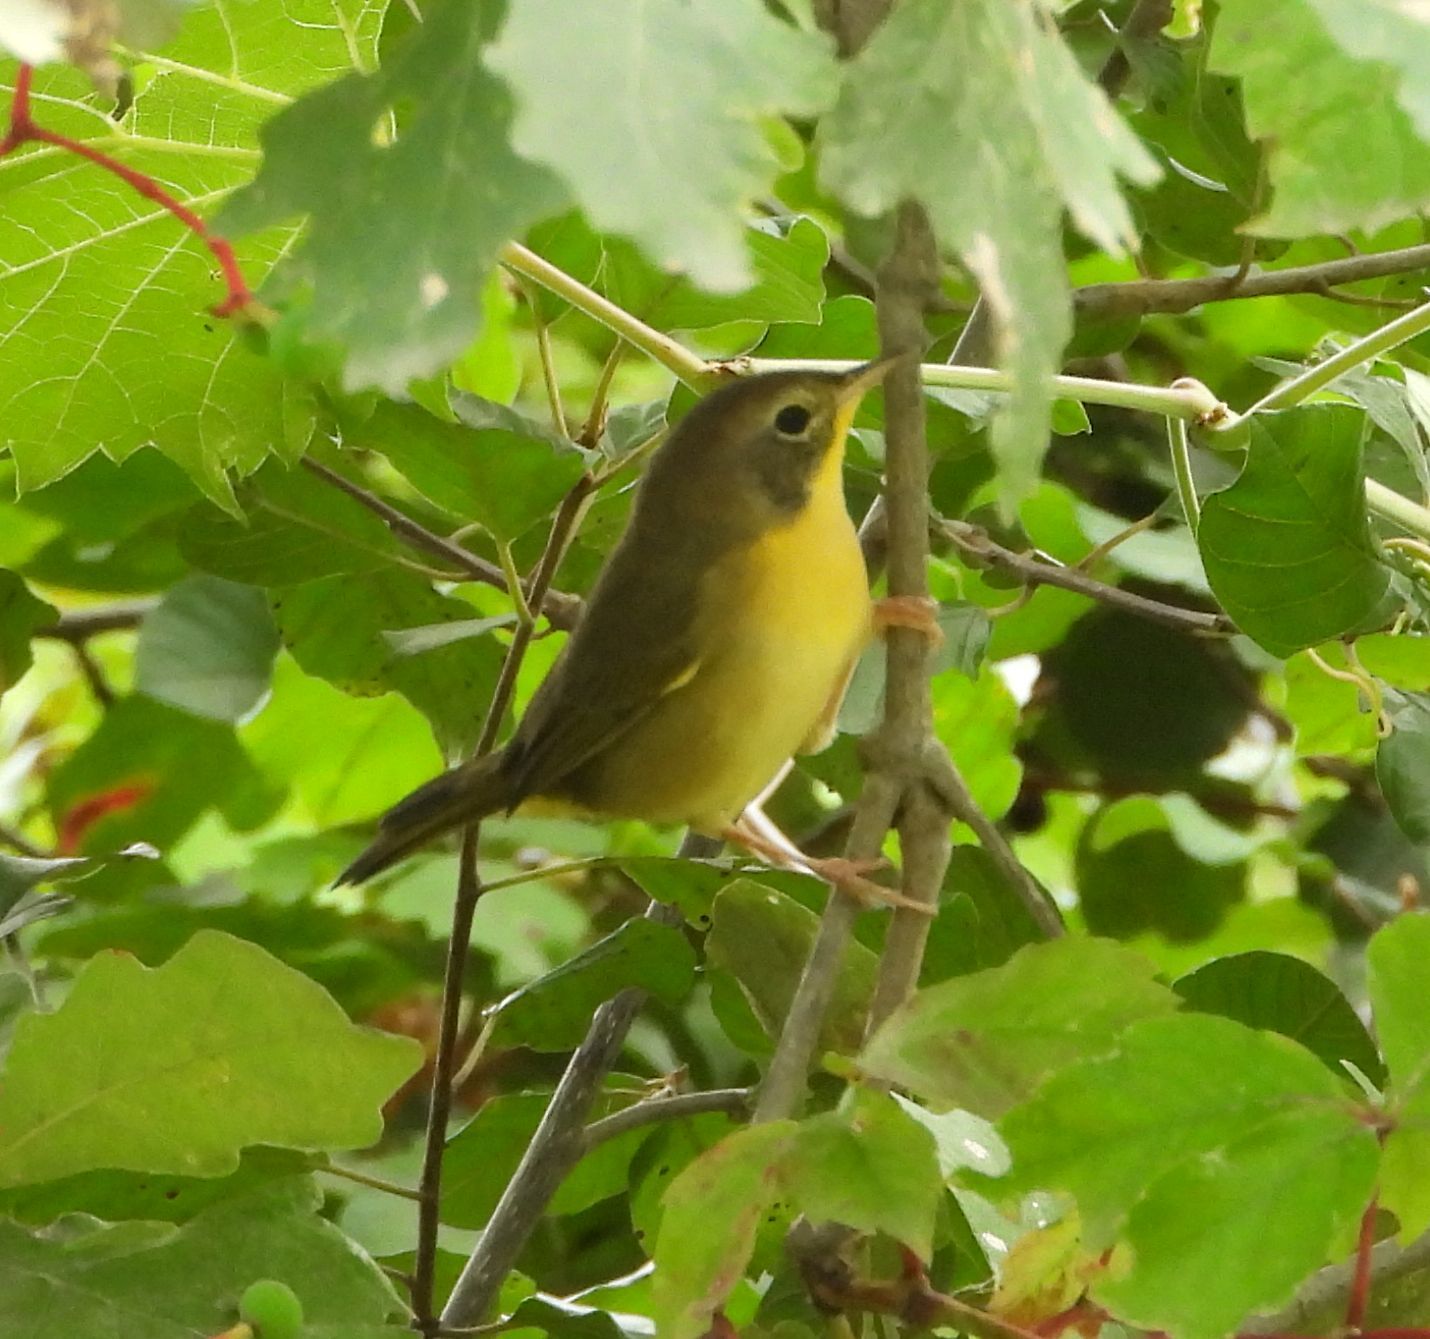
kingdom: Animalia
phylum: Chordata
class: Aves
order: Passeriformes
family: Parulidae
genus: Geothlypis
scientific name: Geothlypis trichas
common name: Common yellowthroat
